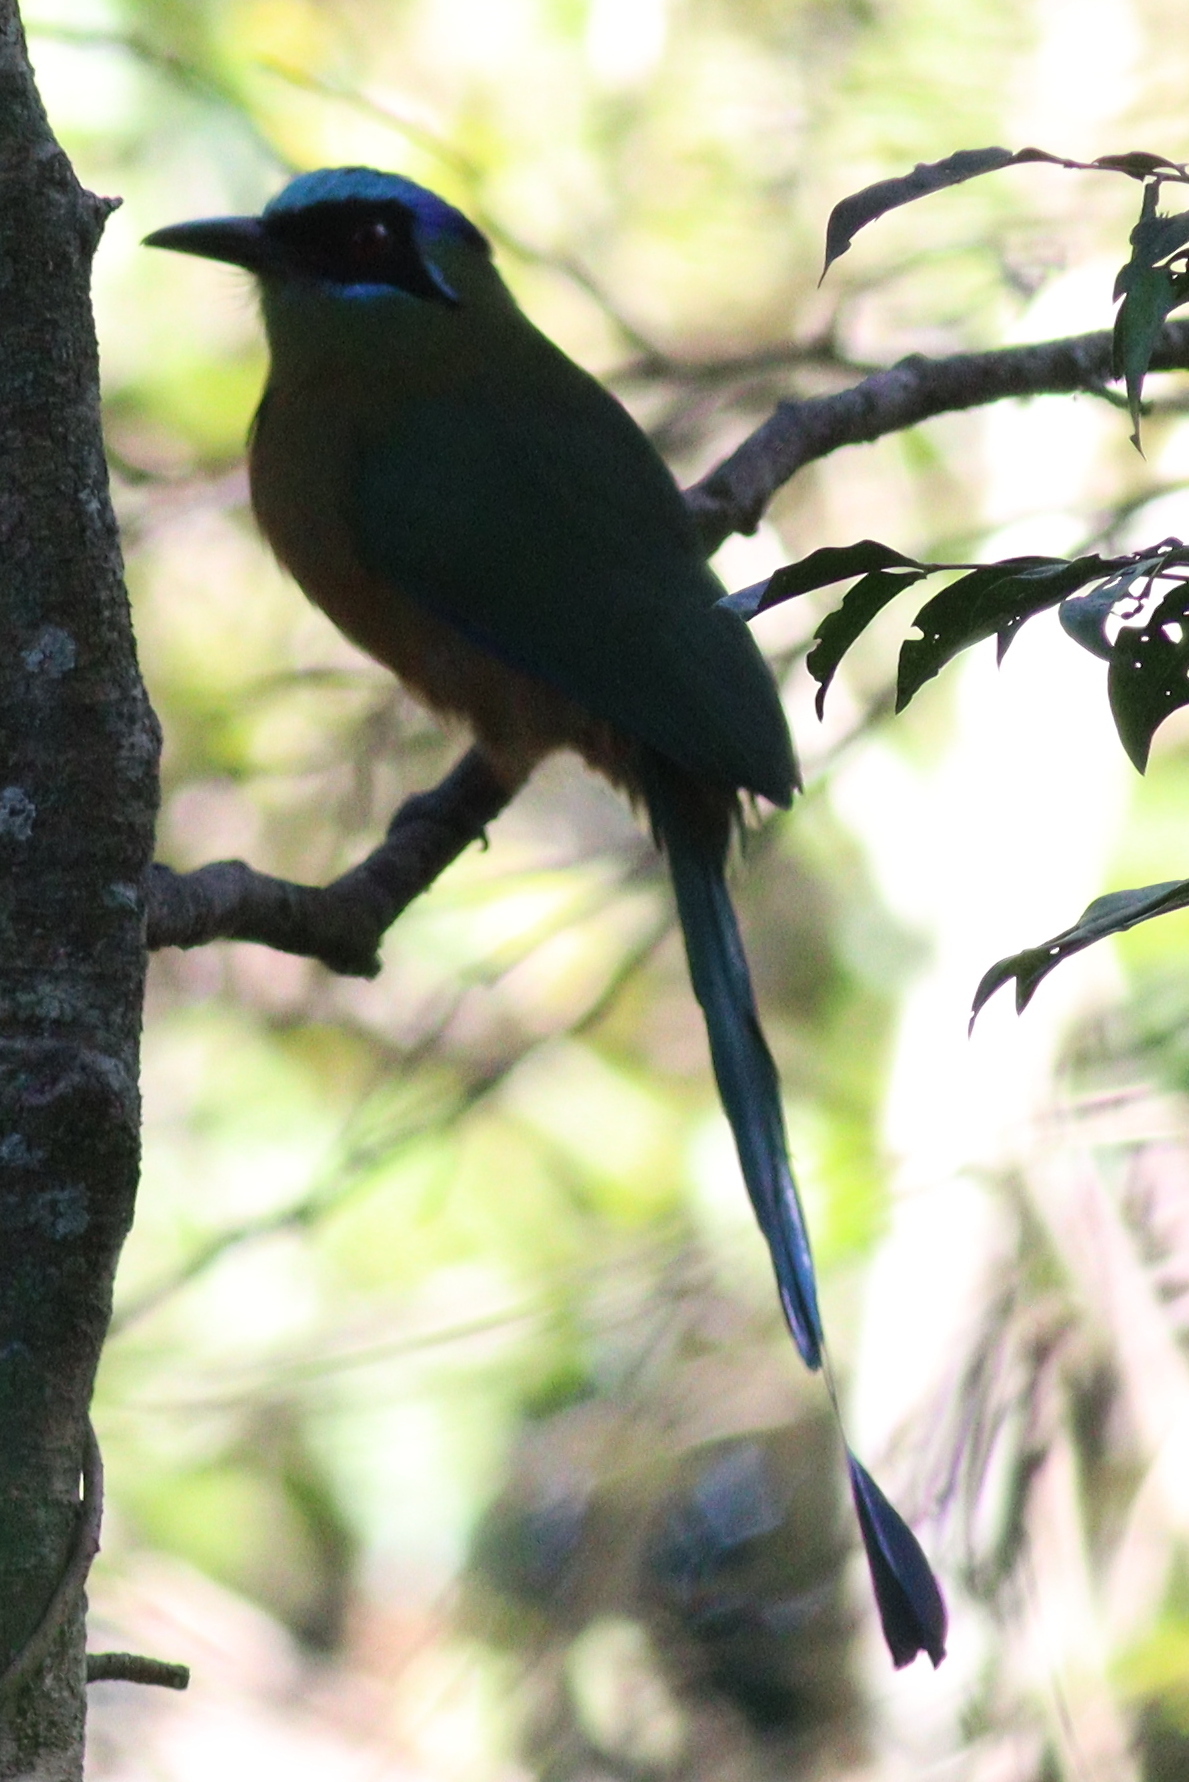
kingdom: Animalia
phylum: Chordata
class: Aves
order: Coraciiformes
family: Momotidae
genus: Momotus
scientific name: Momotus momota
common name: Amazonian motmot
